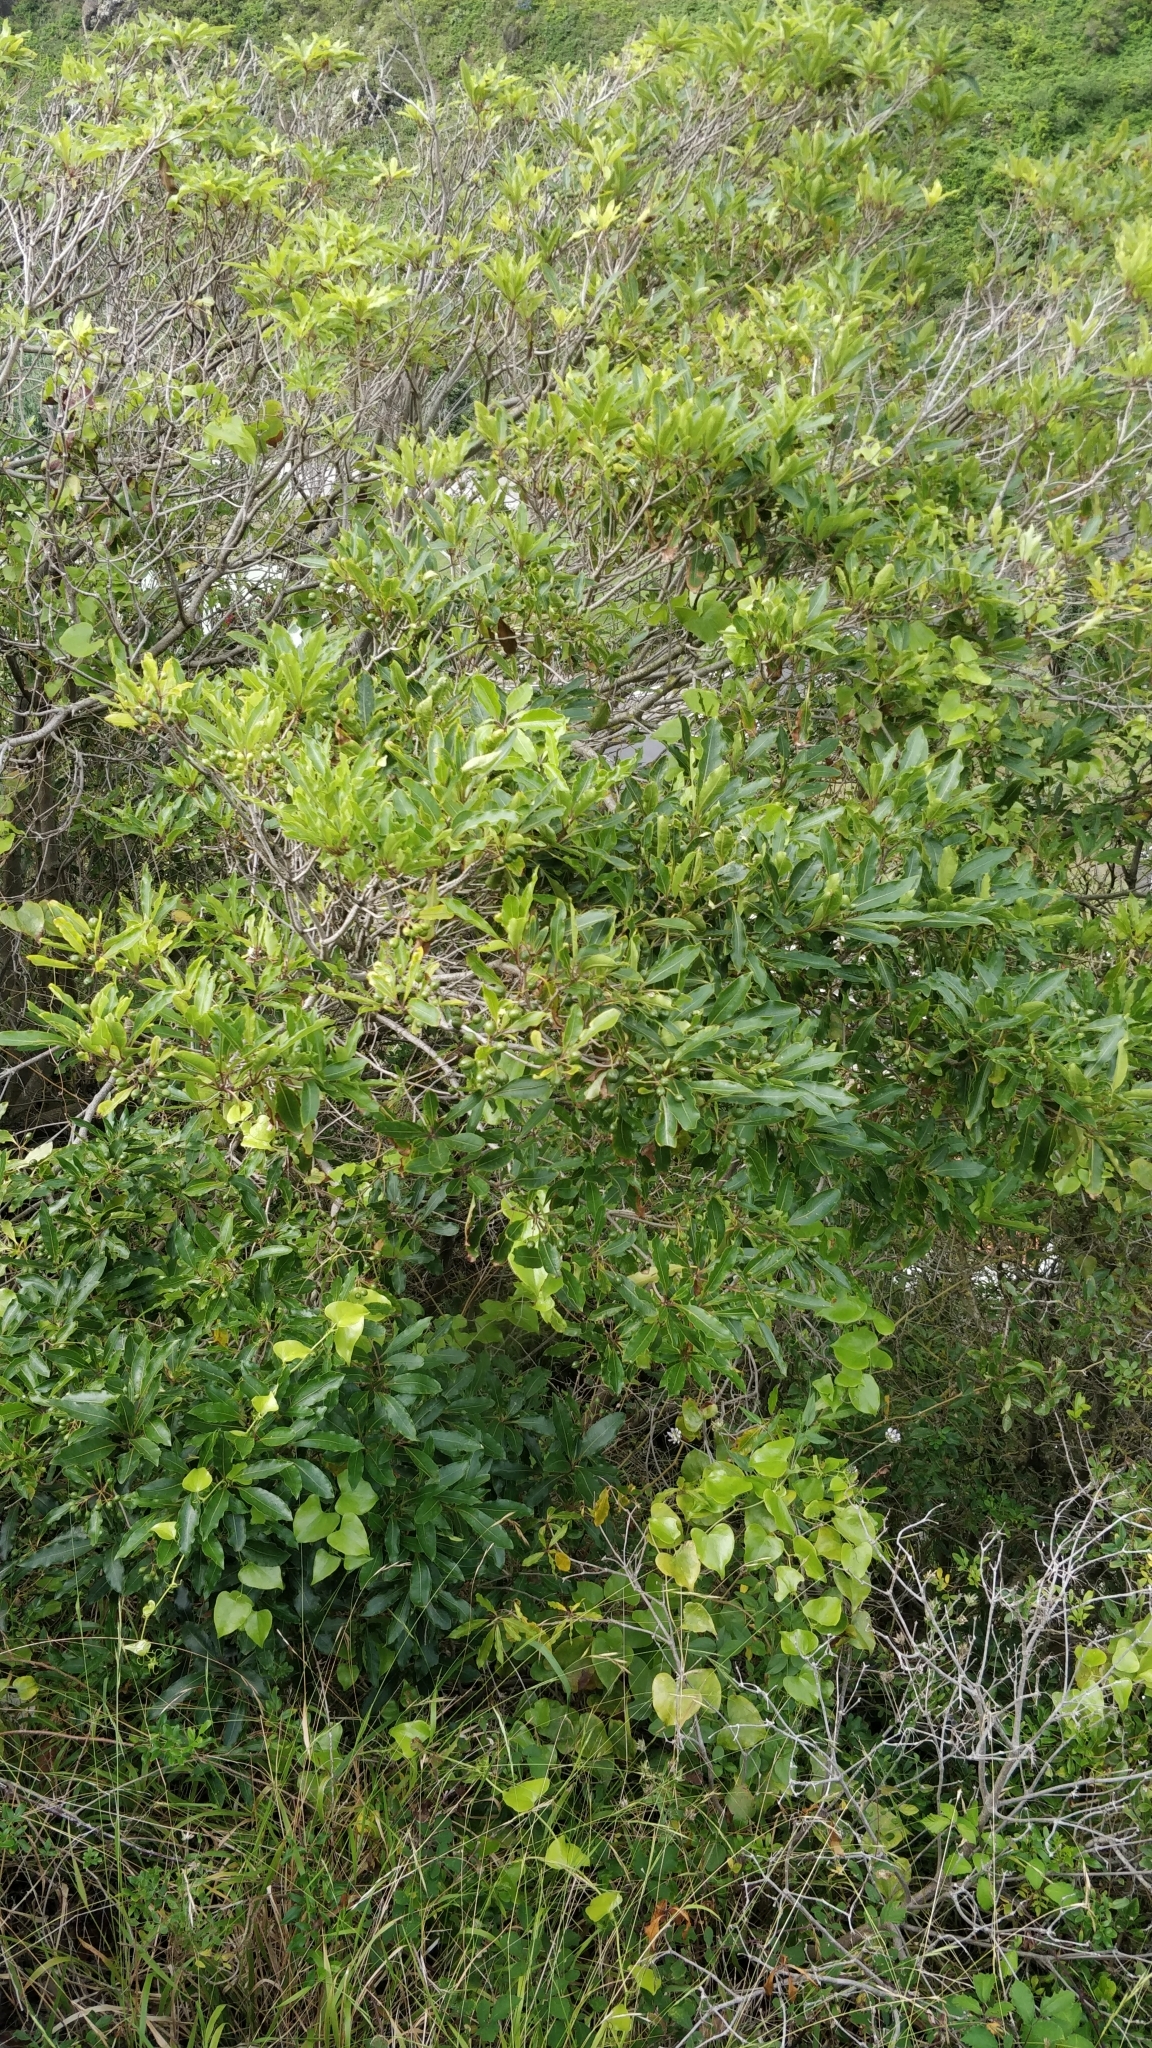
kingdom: Plantae
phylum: Tracheophyta
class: Magnoliopsida
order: Apiales
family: Pittosporaceae
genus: Pittosporum
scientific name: Pittosporum undulatum
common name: Australian cheesewood
